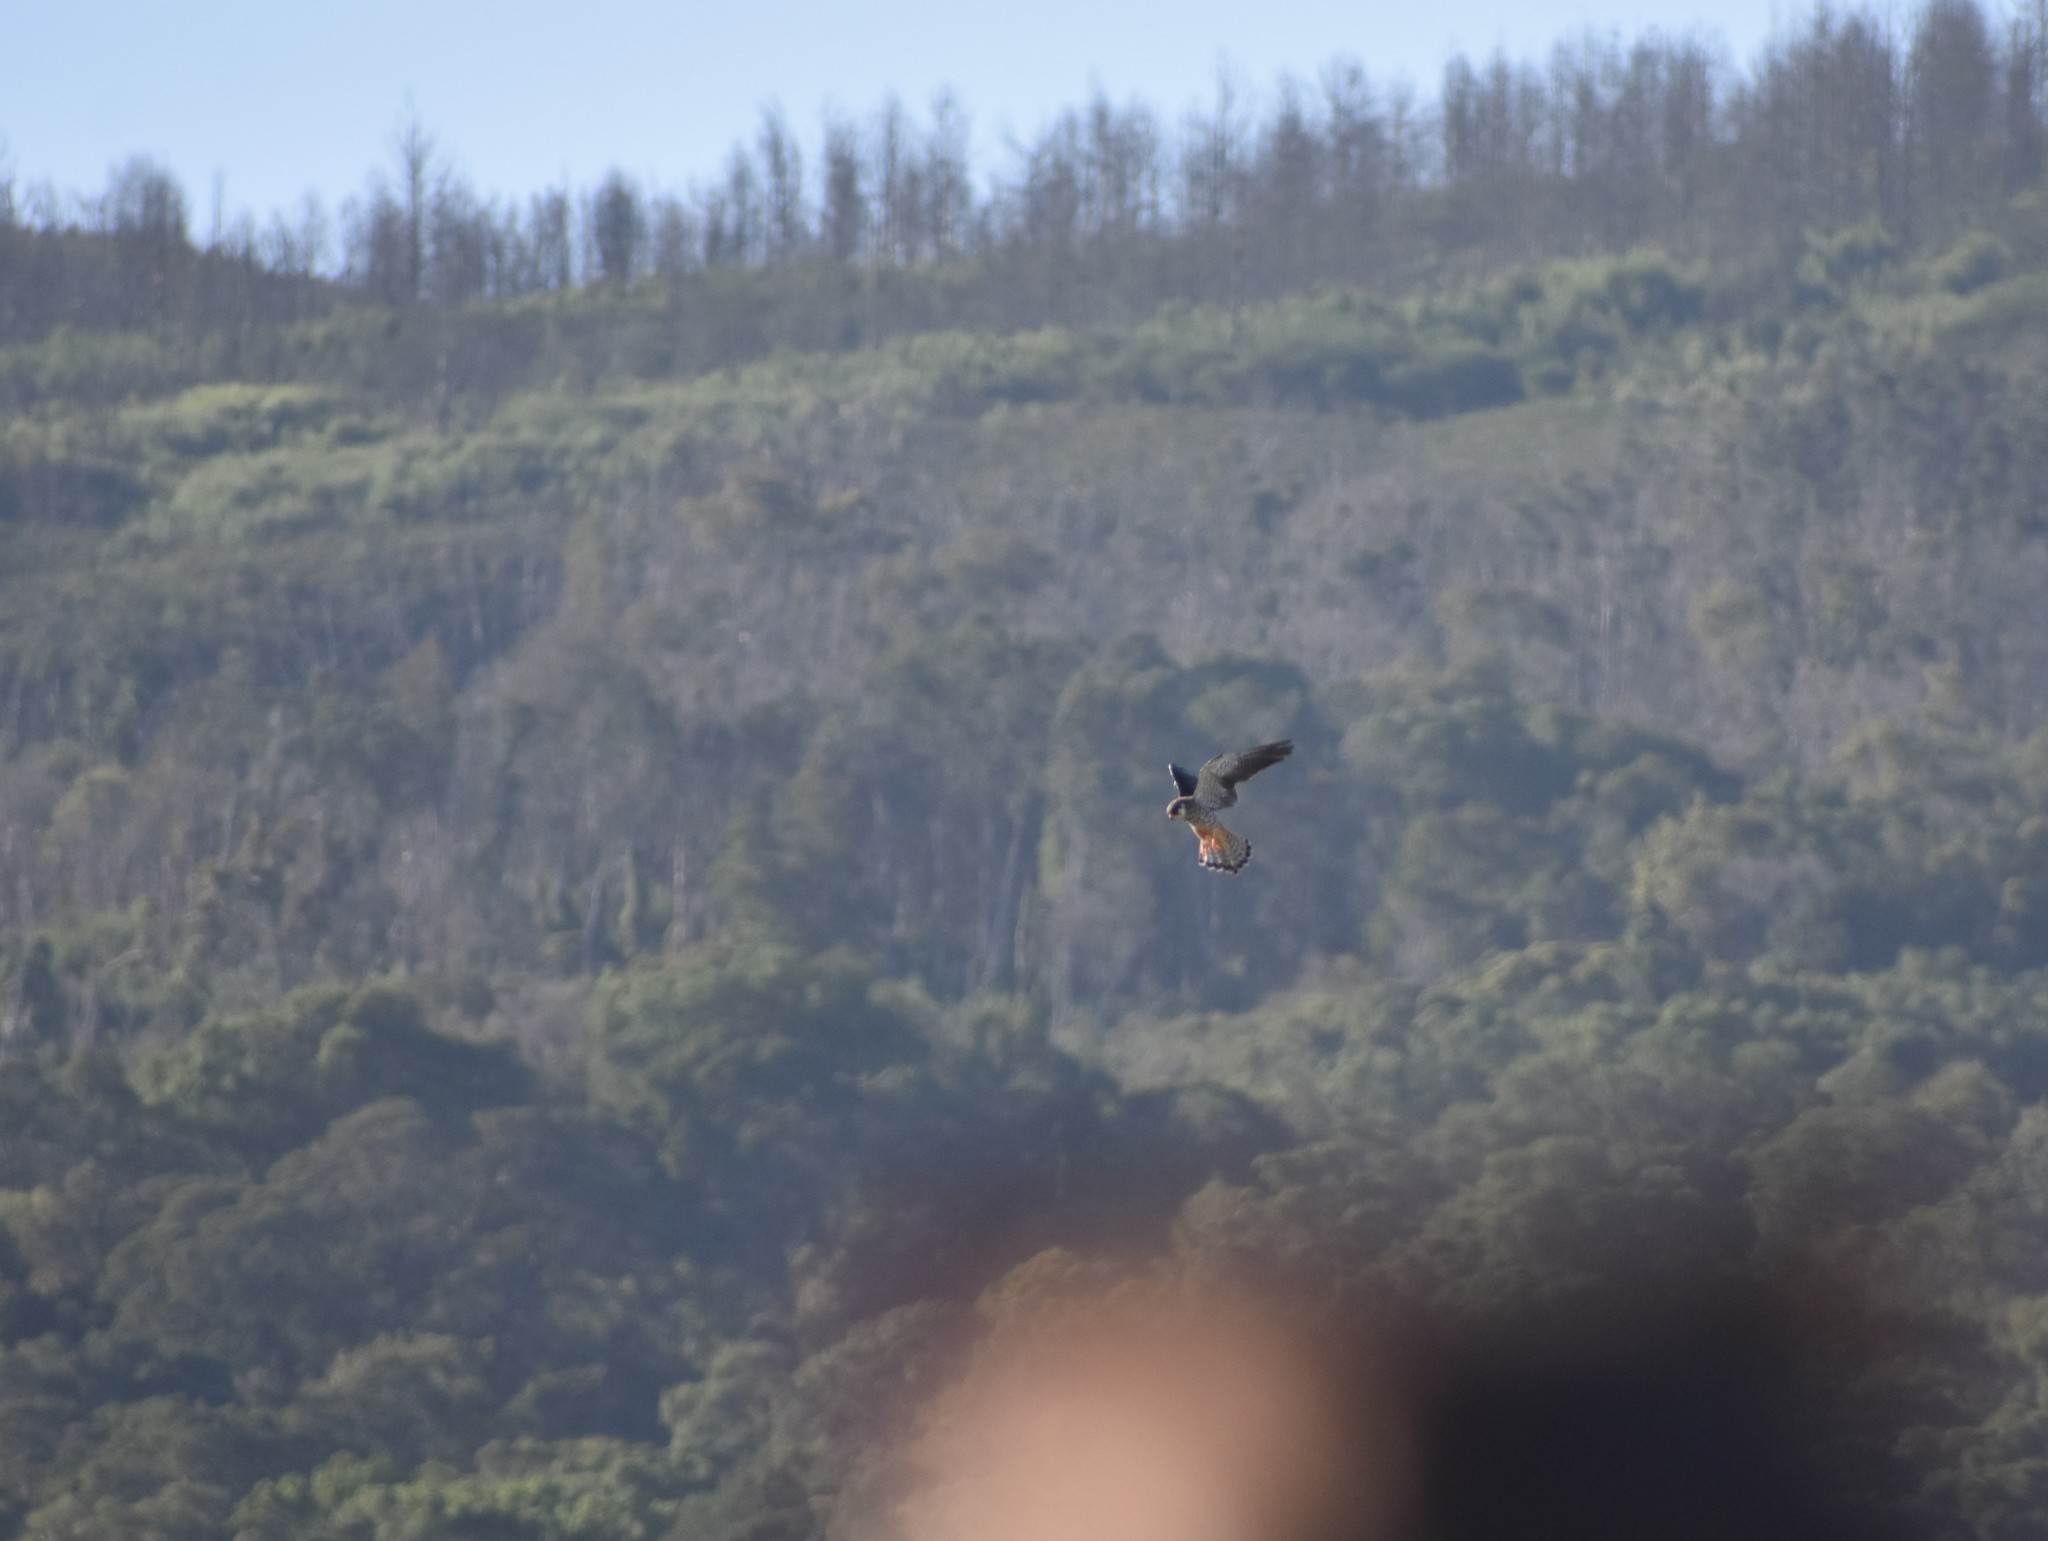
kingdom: Animalia
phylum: Chordata
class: Aves
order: Falconiformes
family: Falconidae
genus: Falco
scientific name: Falco amurensis
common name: Amur falcon
